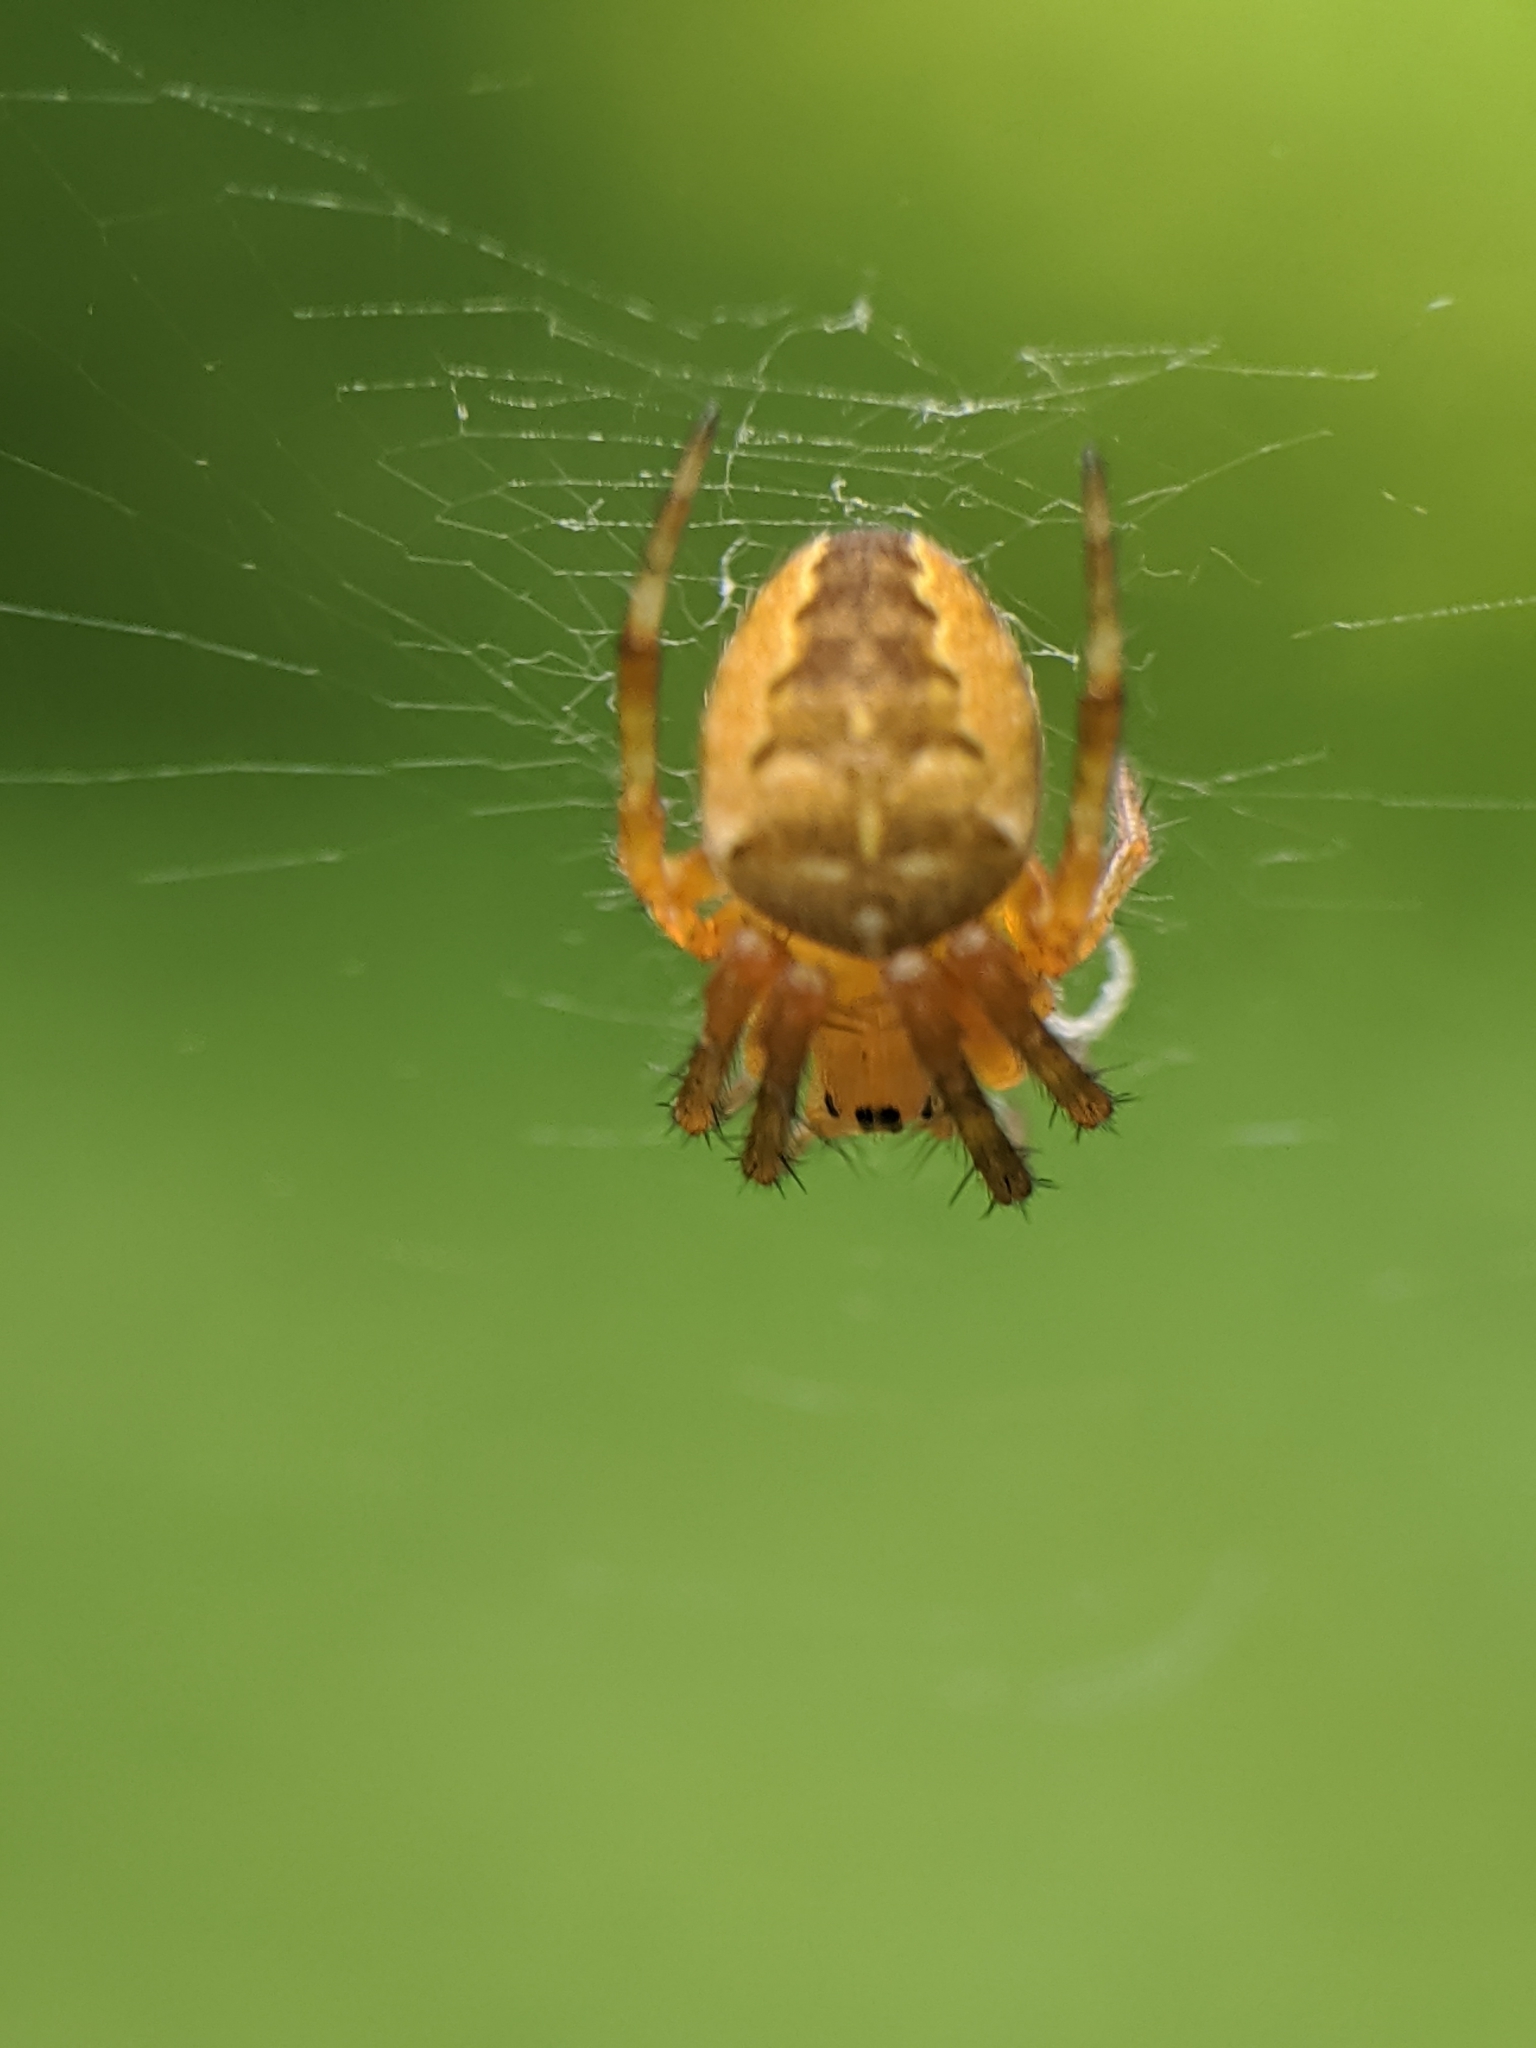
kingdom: Animalia
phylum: Arthropoda
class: Arachnida
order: Araneae
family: Araneidae
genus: Araneus
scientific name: Araneus diadematus
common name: Cross orbweaver
